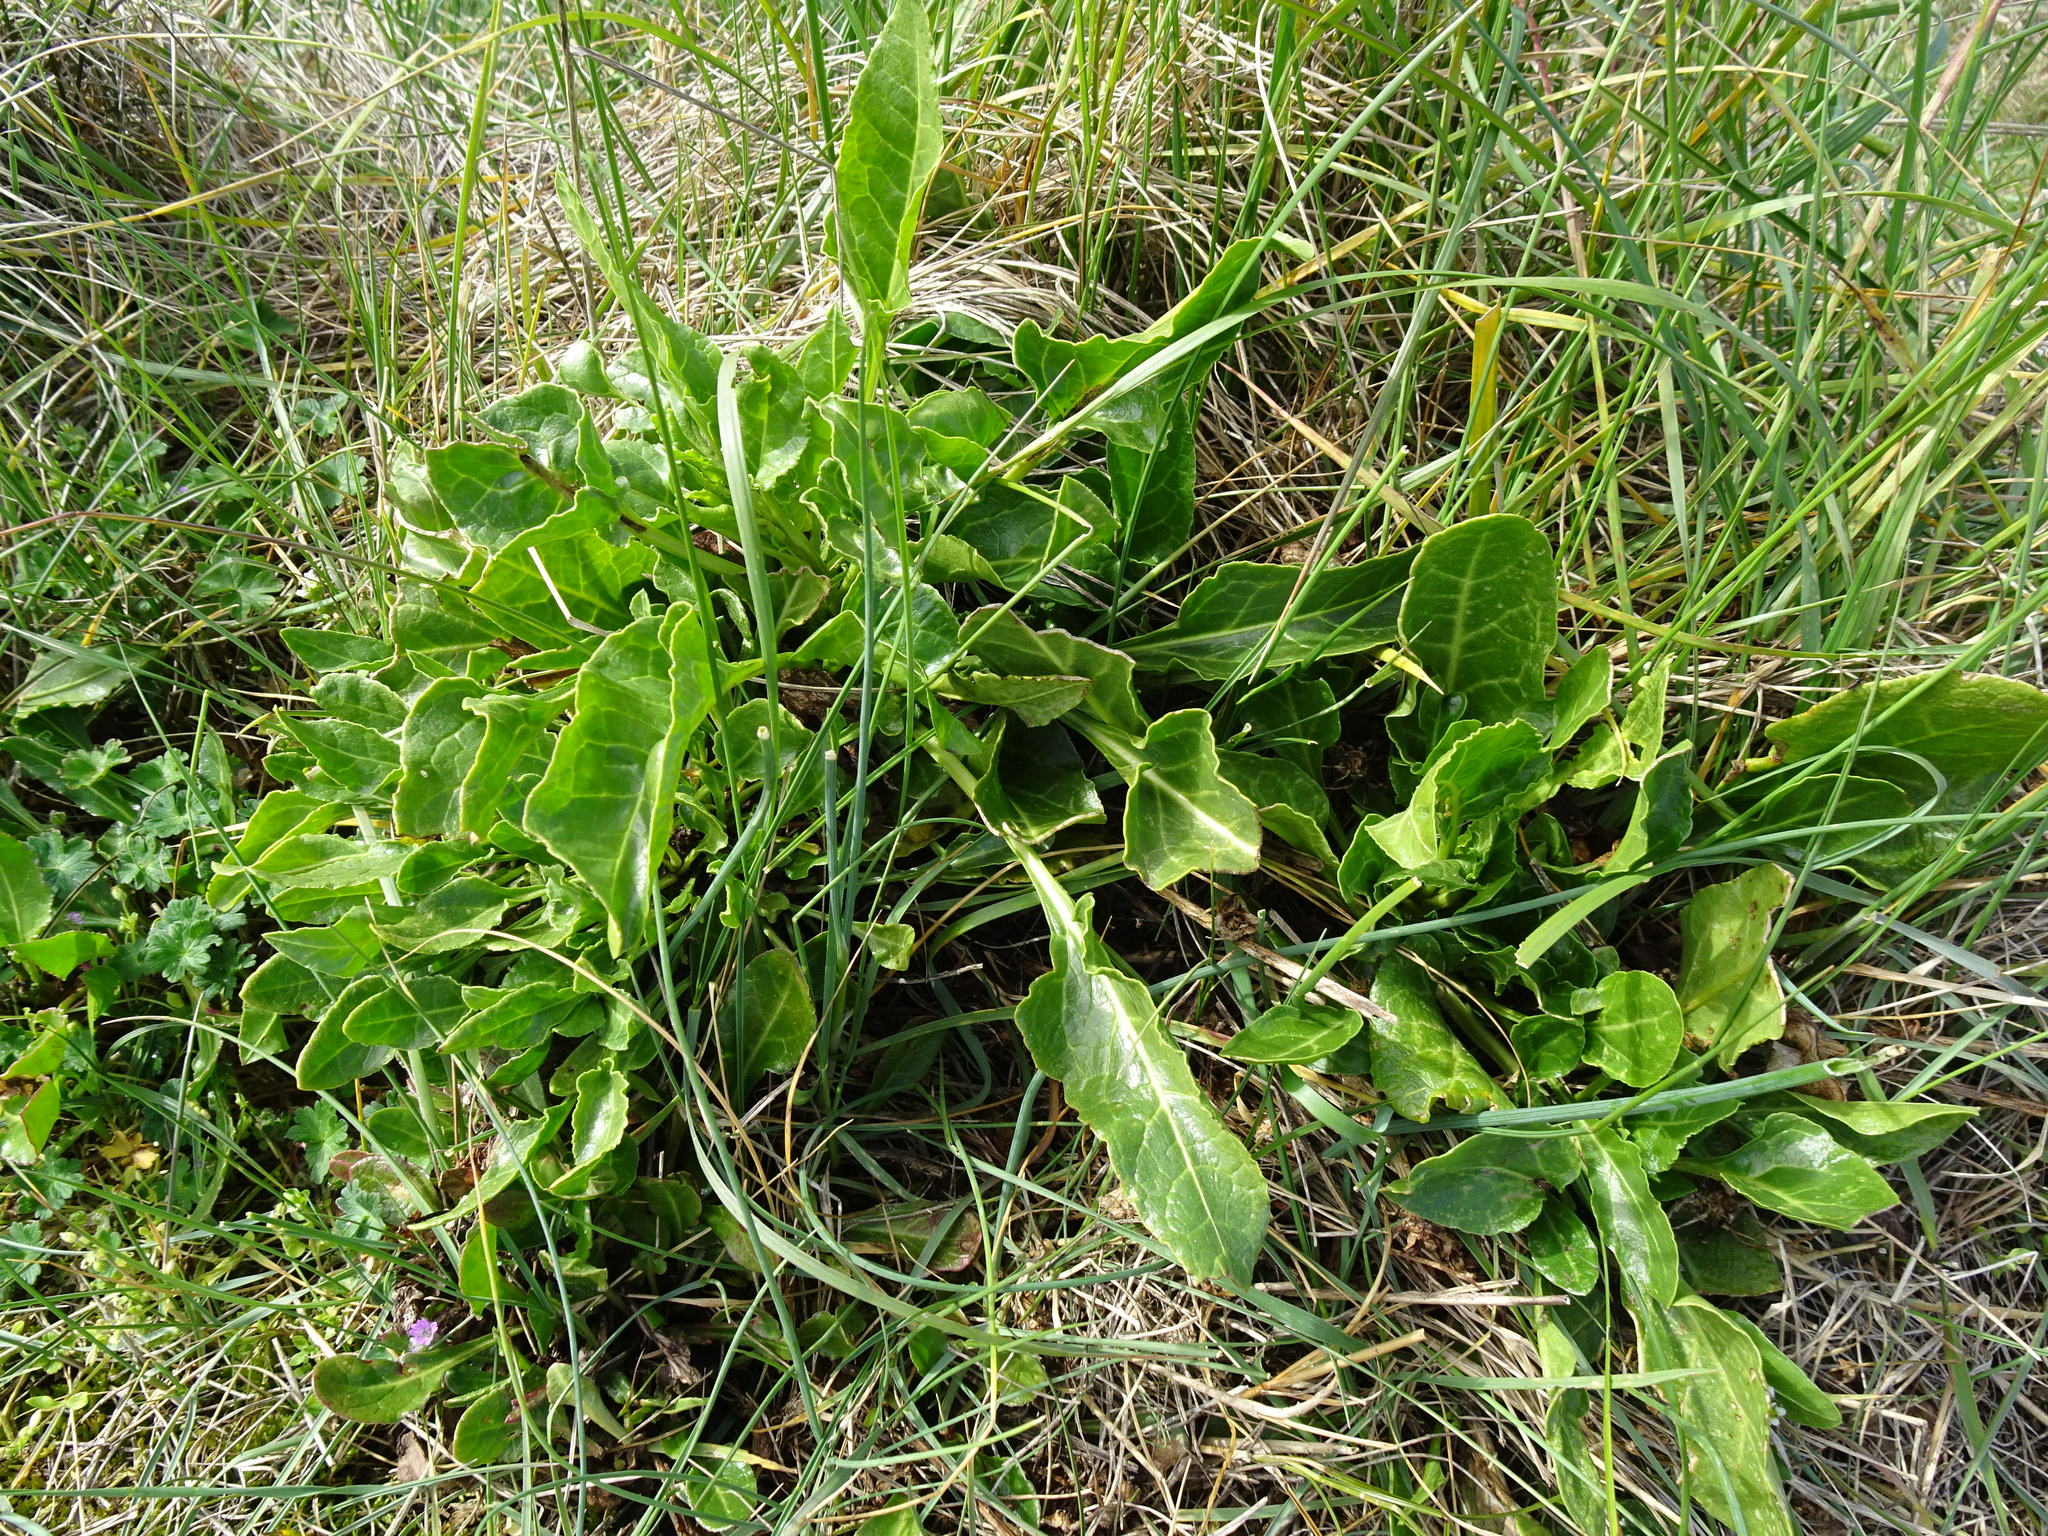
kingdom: Plantae
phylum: Tracheophyta
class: Magnoliopsida
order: Caryophyllales
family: Amaranthaceae
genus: Beta
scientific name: Beta vulgaris
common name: Beet
